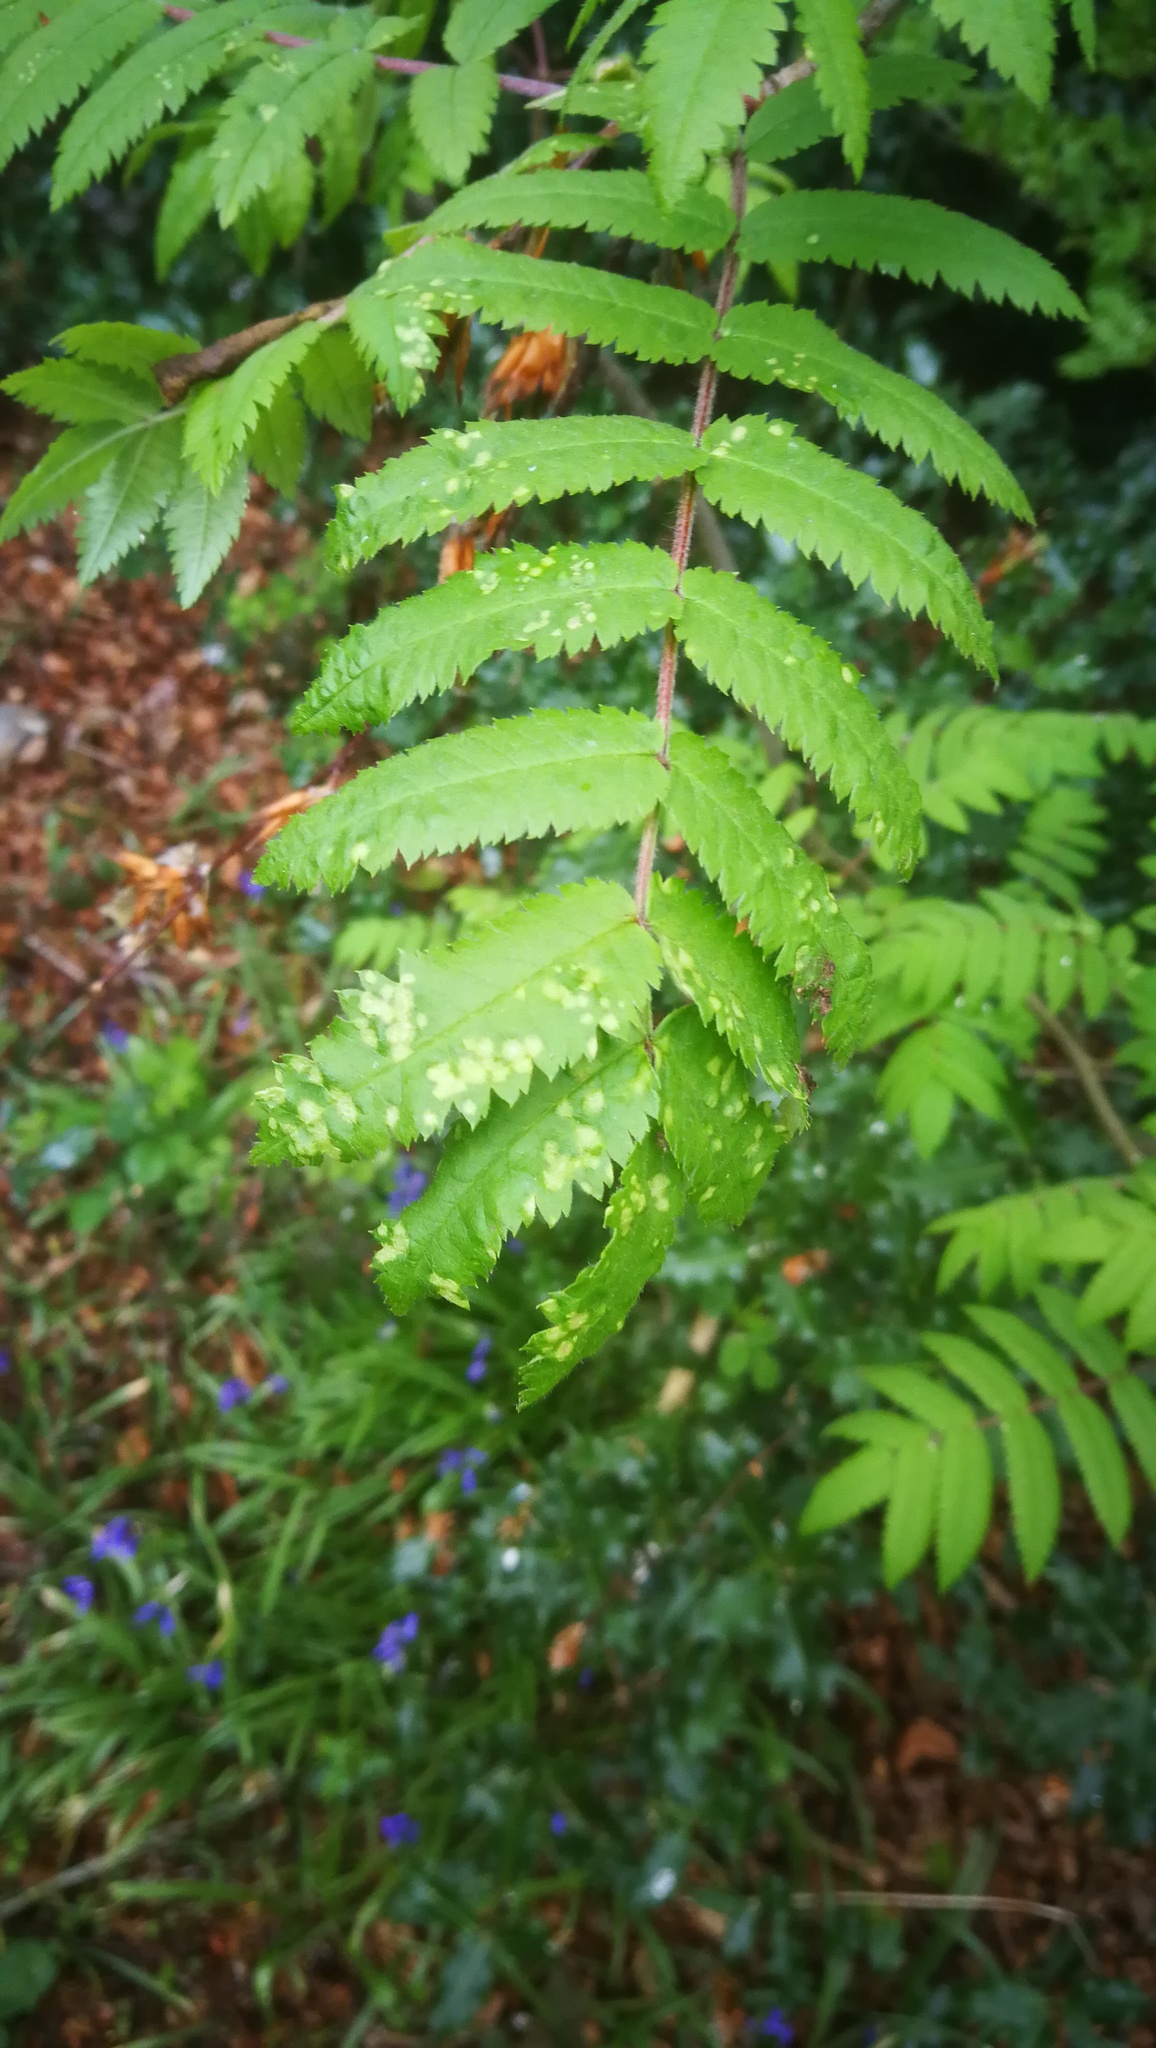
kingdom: Plantae
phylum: Tracheophyta
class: Magnoliopsida
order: Rosales
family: Rosaceae
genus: Sorbus
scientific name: Sorbus aucuparia
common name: Rowan
